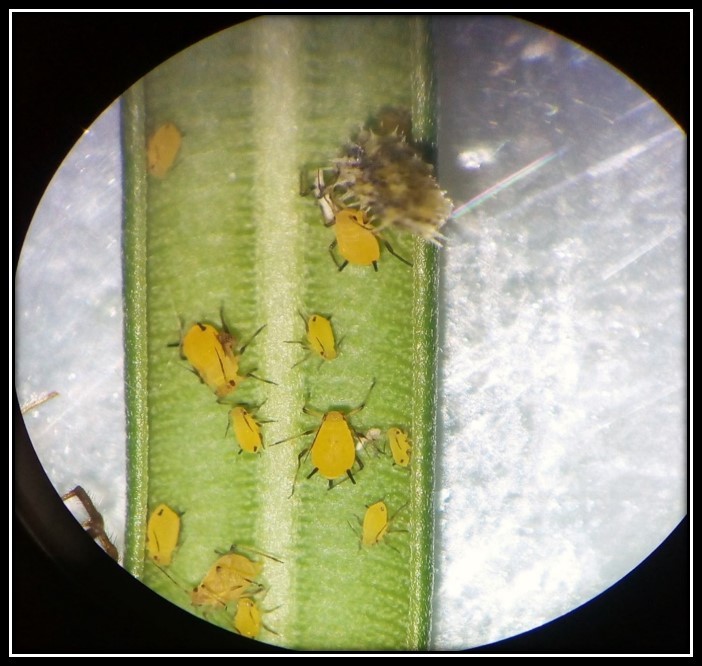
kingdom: Animalia
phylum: Arthropoda
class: Insecta
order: Hemiptera
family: Aphididae
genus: Aphis
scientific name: Aphis nerii
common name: Oleander aphid
